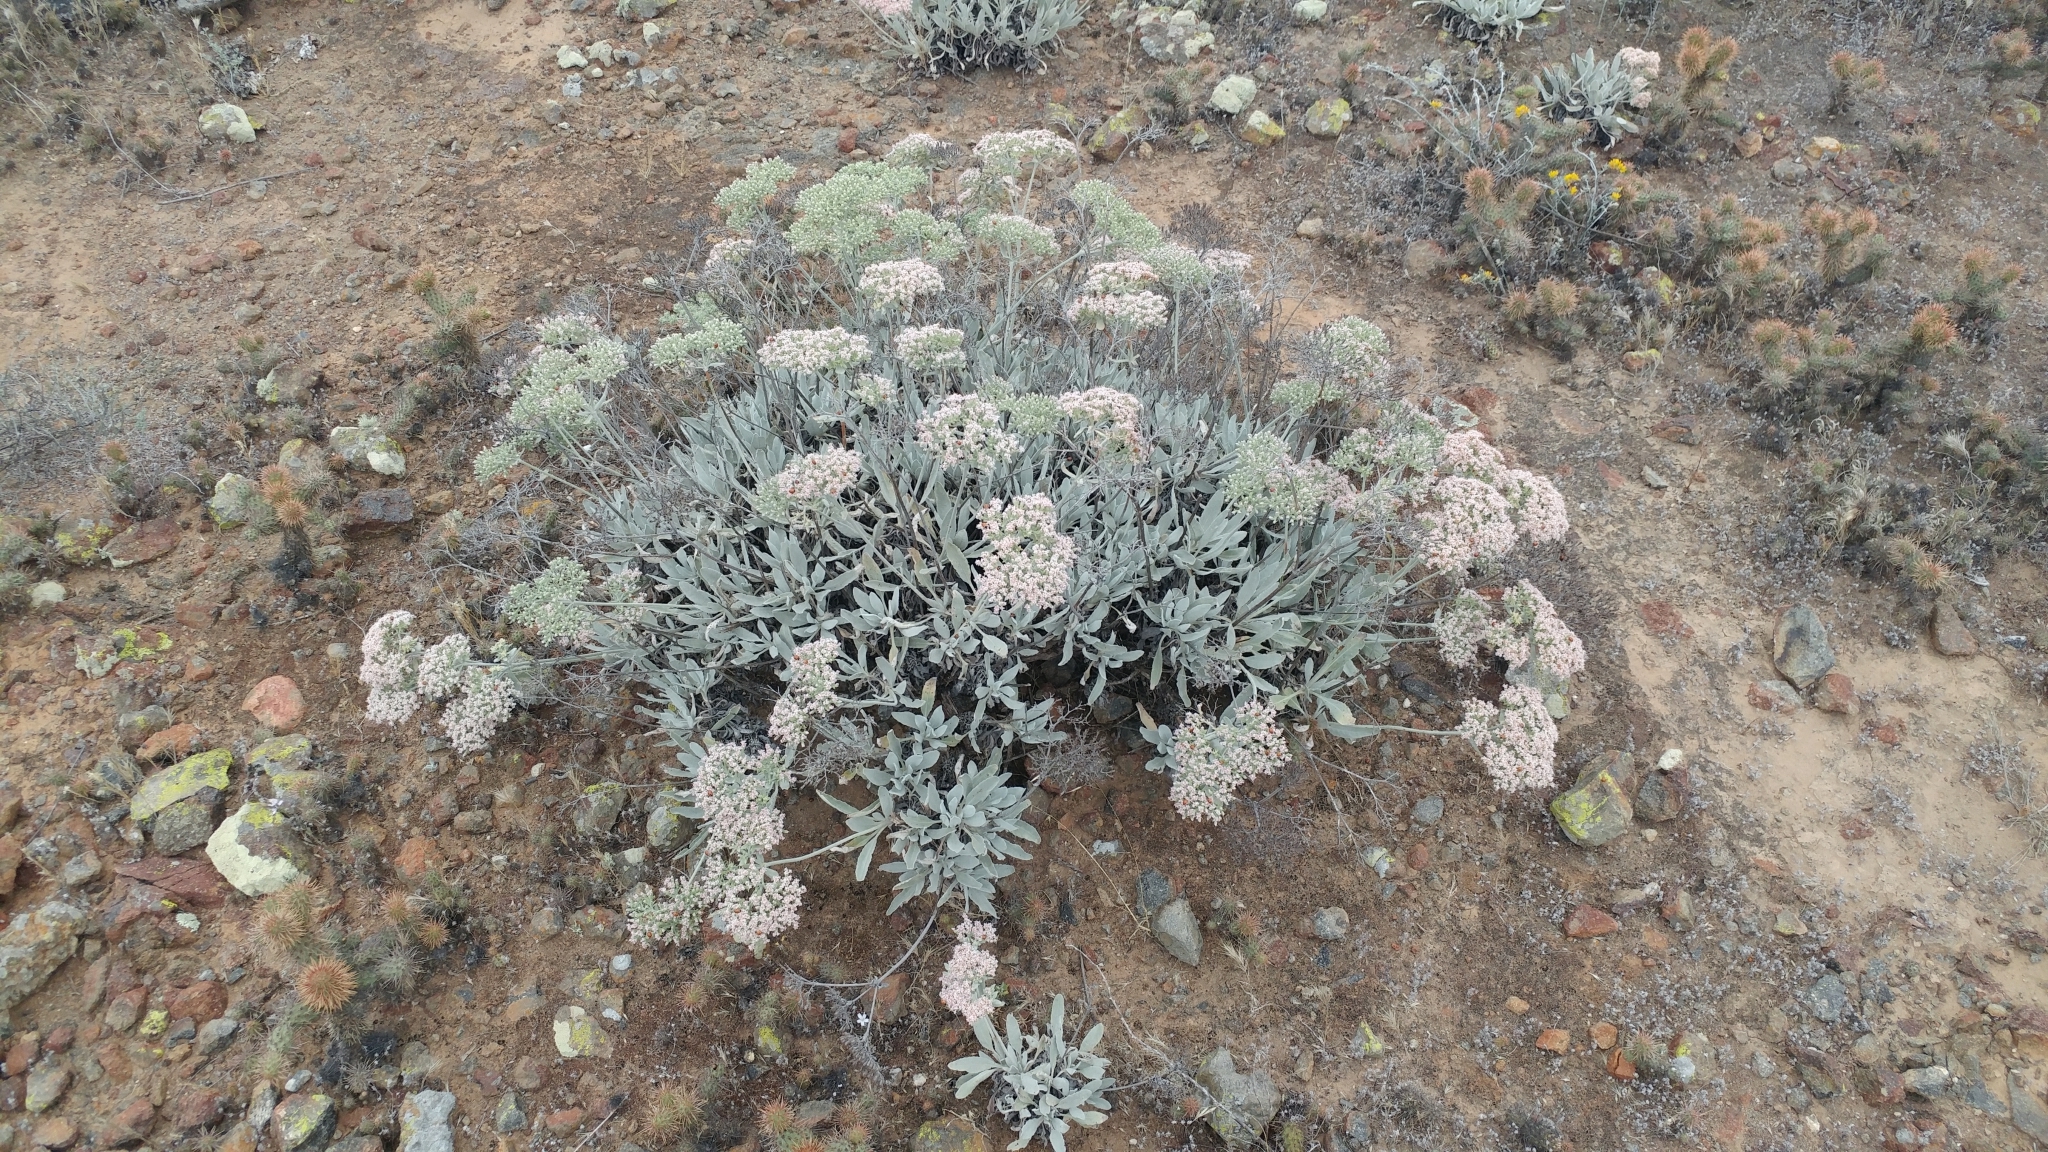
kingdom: Plantae
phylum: Tracheophyta
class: Magnoliopsida
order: Caryophyllales
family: Polygonaceae
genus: Eriogonum
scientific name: Eriogonum giganteum
